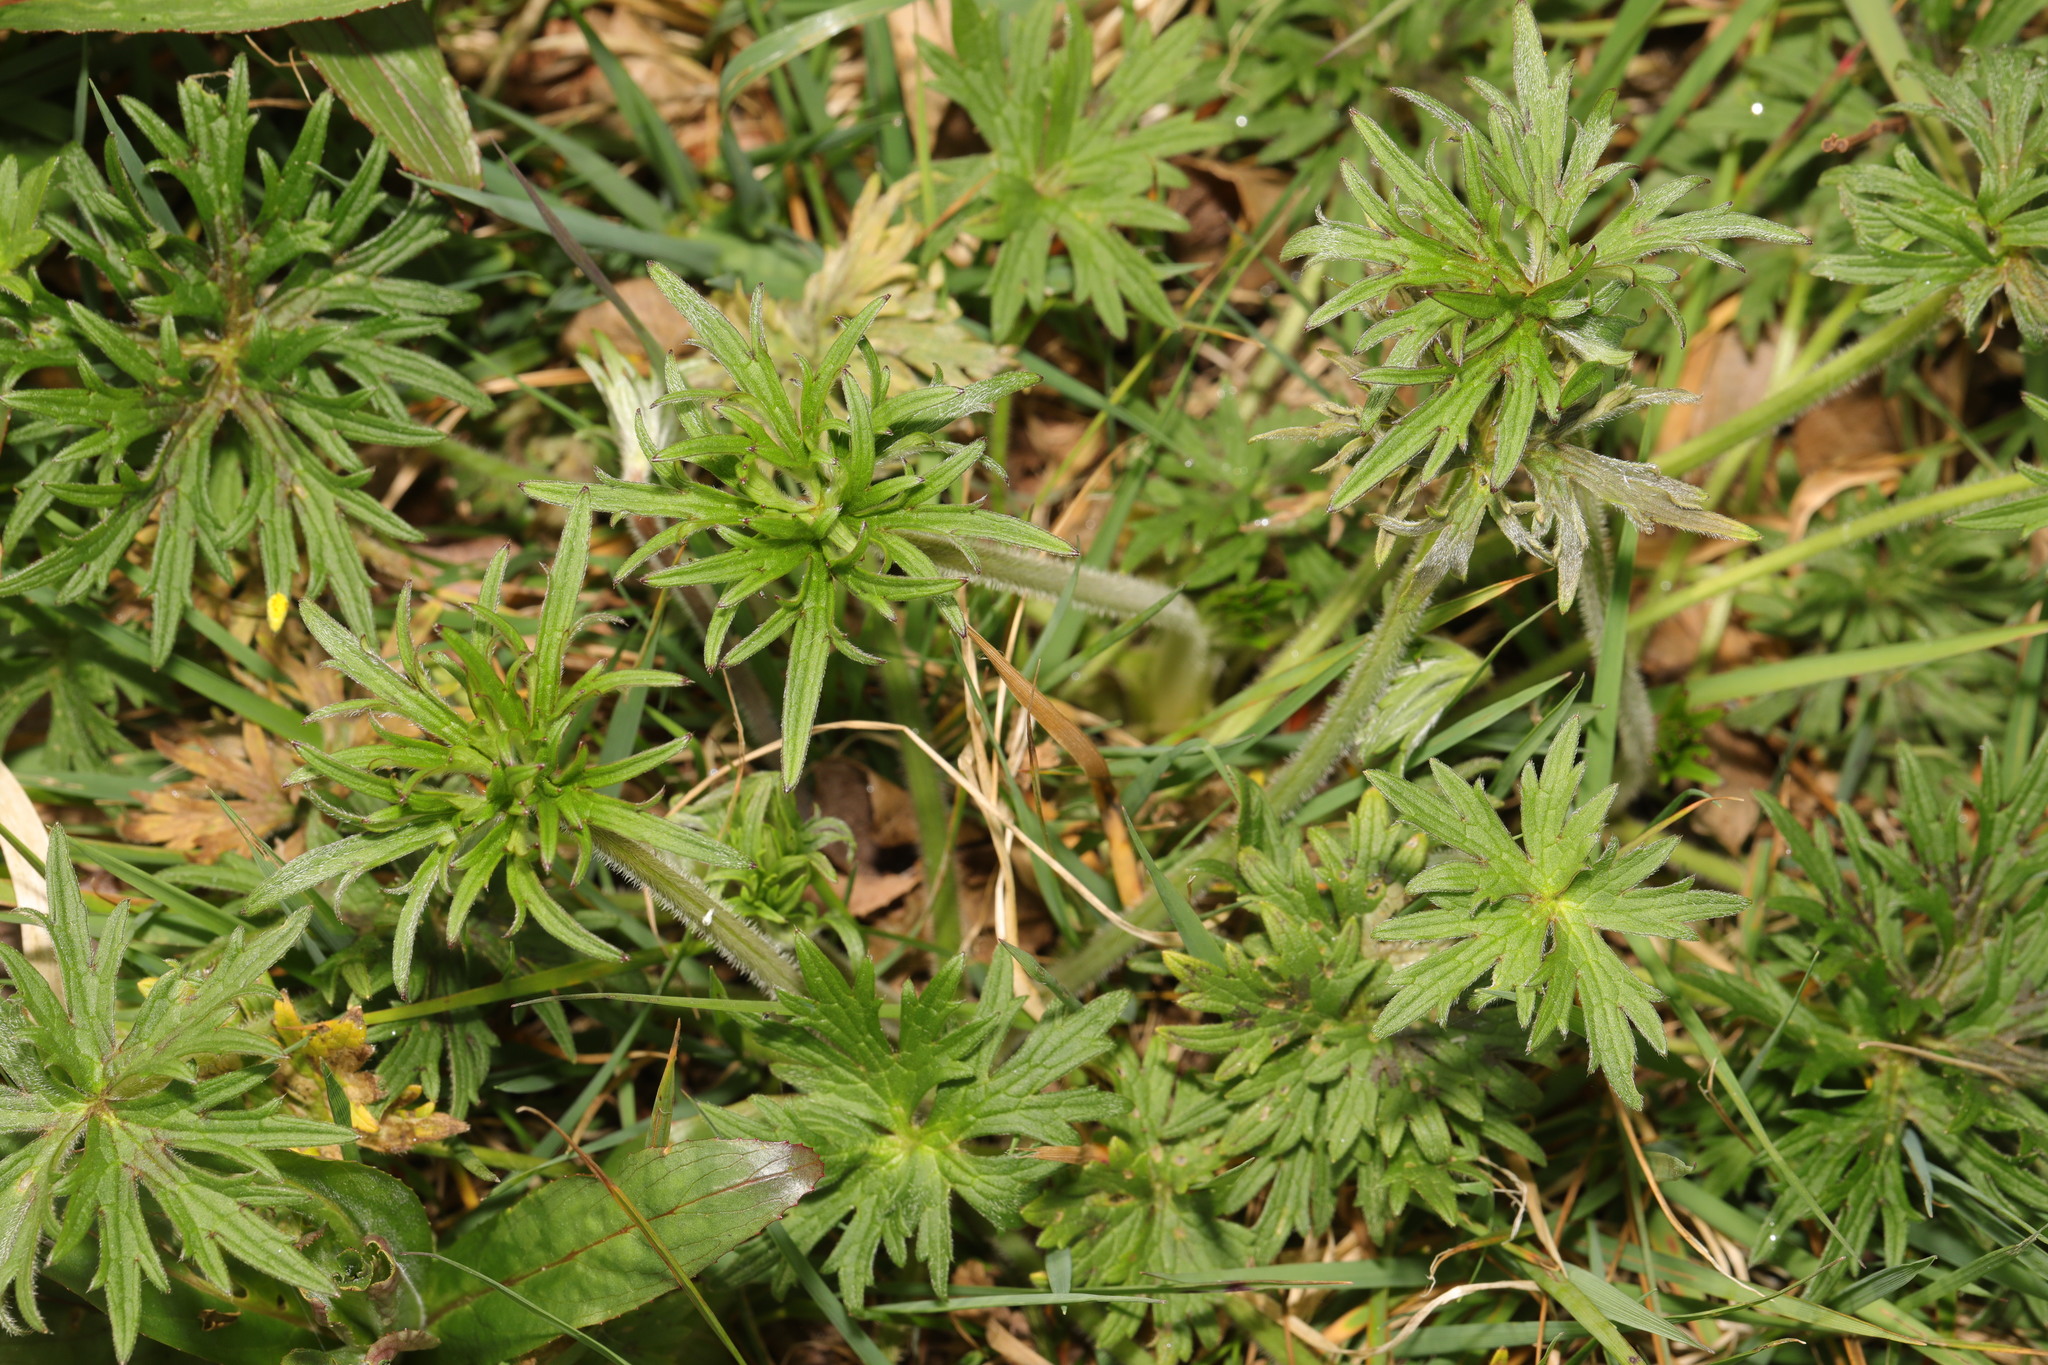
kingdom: Plantae
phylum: Tracheophyta
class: Magnoliopsida
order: Ranunculales
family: Ranunculaceae
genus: Ranunculus
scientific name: Ranunculus acris
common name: Meadow buttercup
